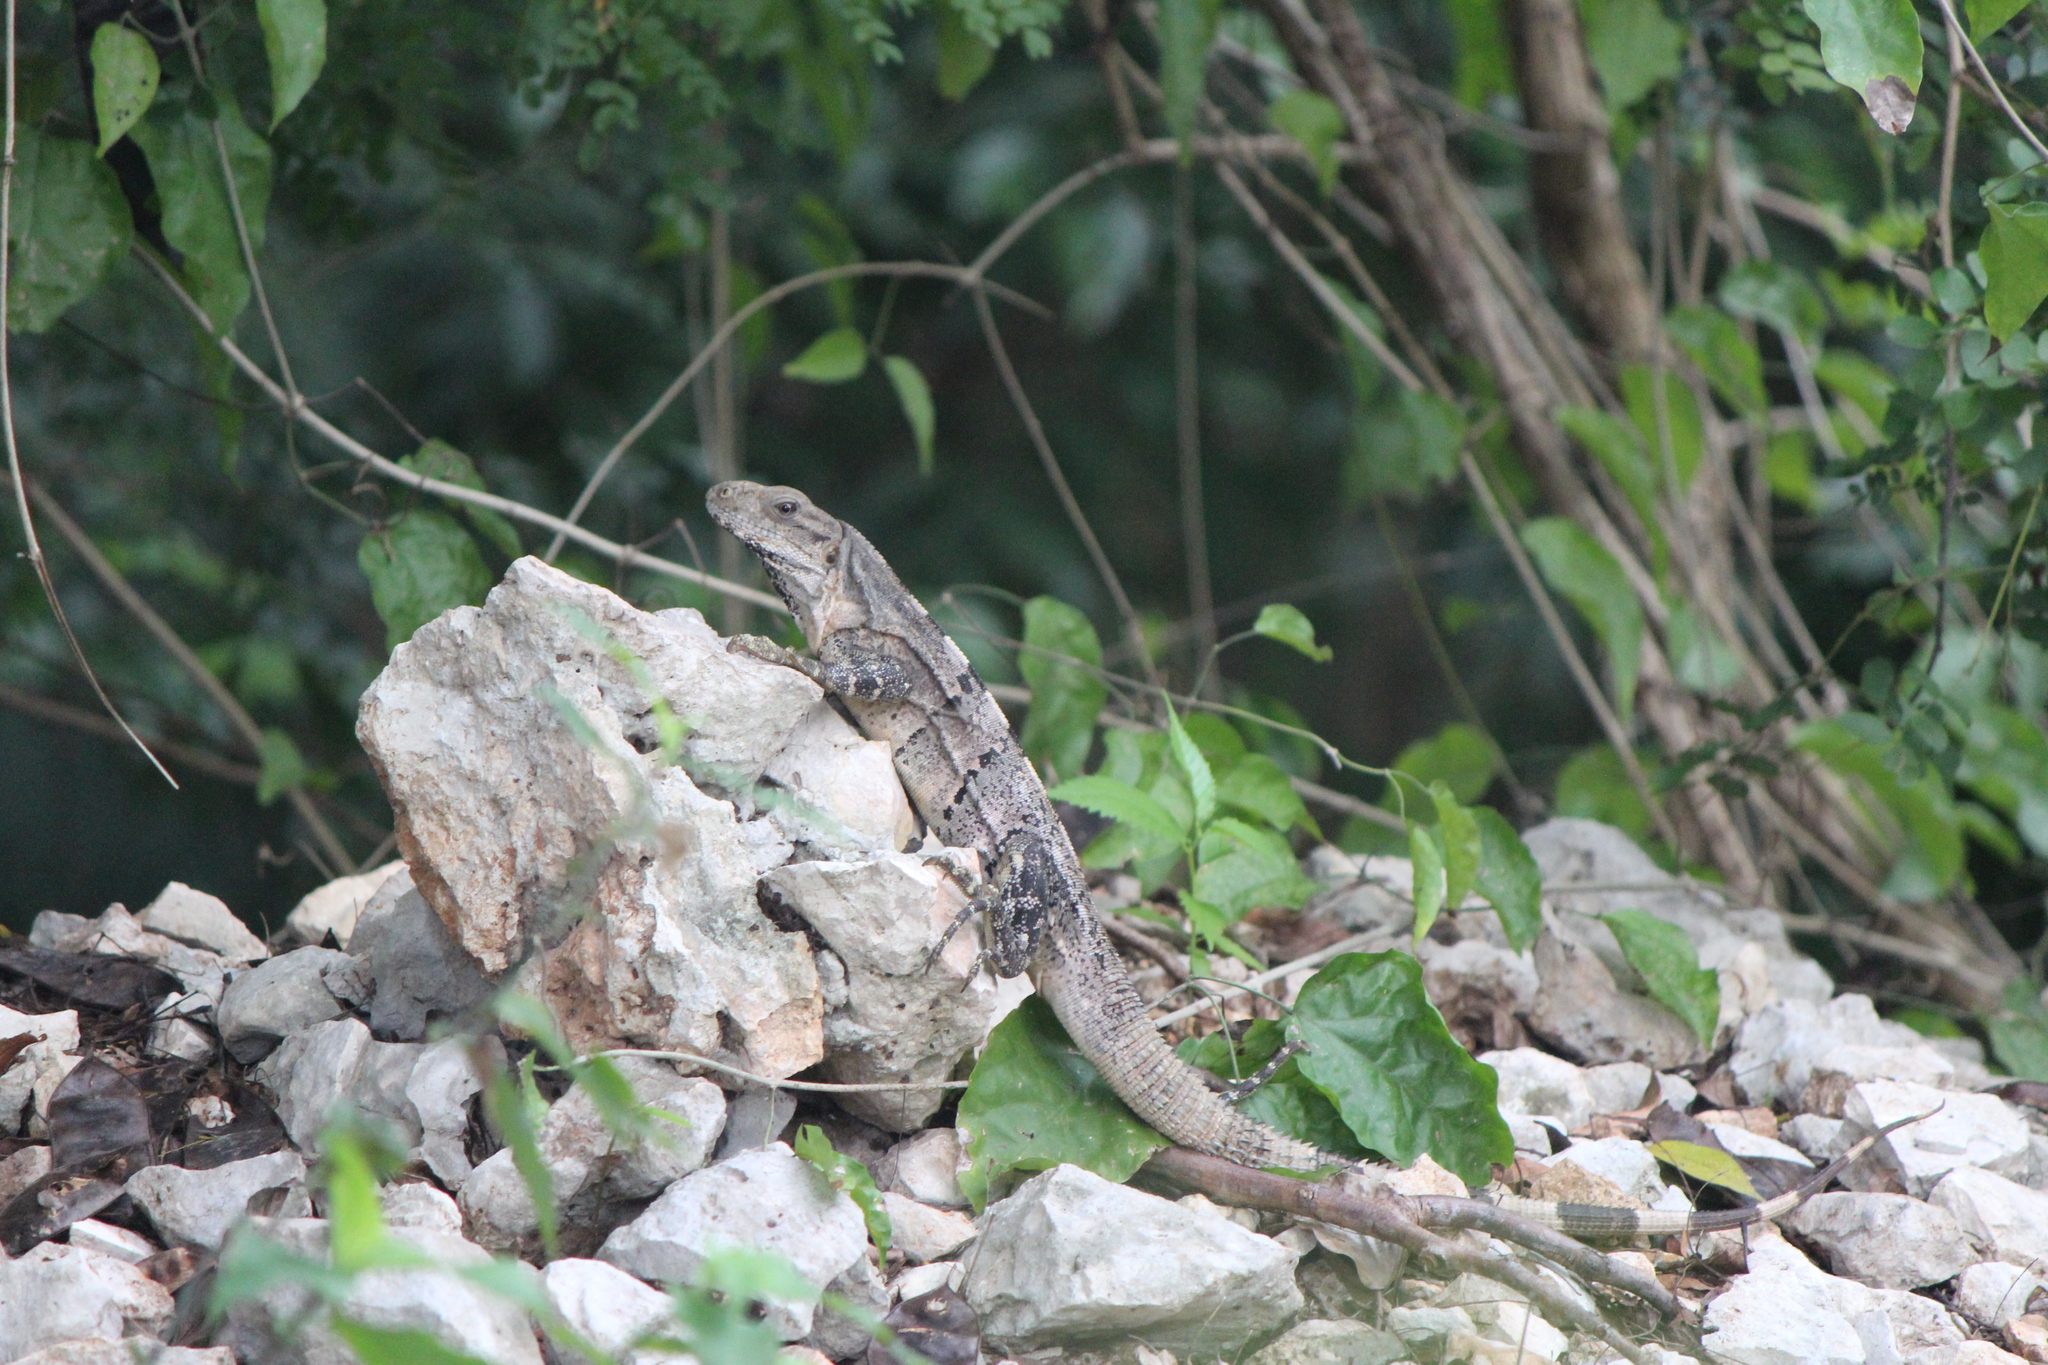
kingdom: Animalia
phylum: Chordata
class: Squamata
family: Iguanidae
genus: Ctenosaura
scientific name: Ctenosaura similis
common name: Black spiny-tailed iguana
